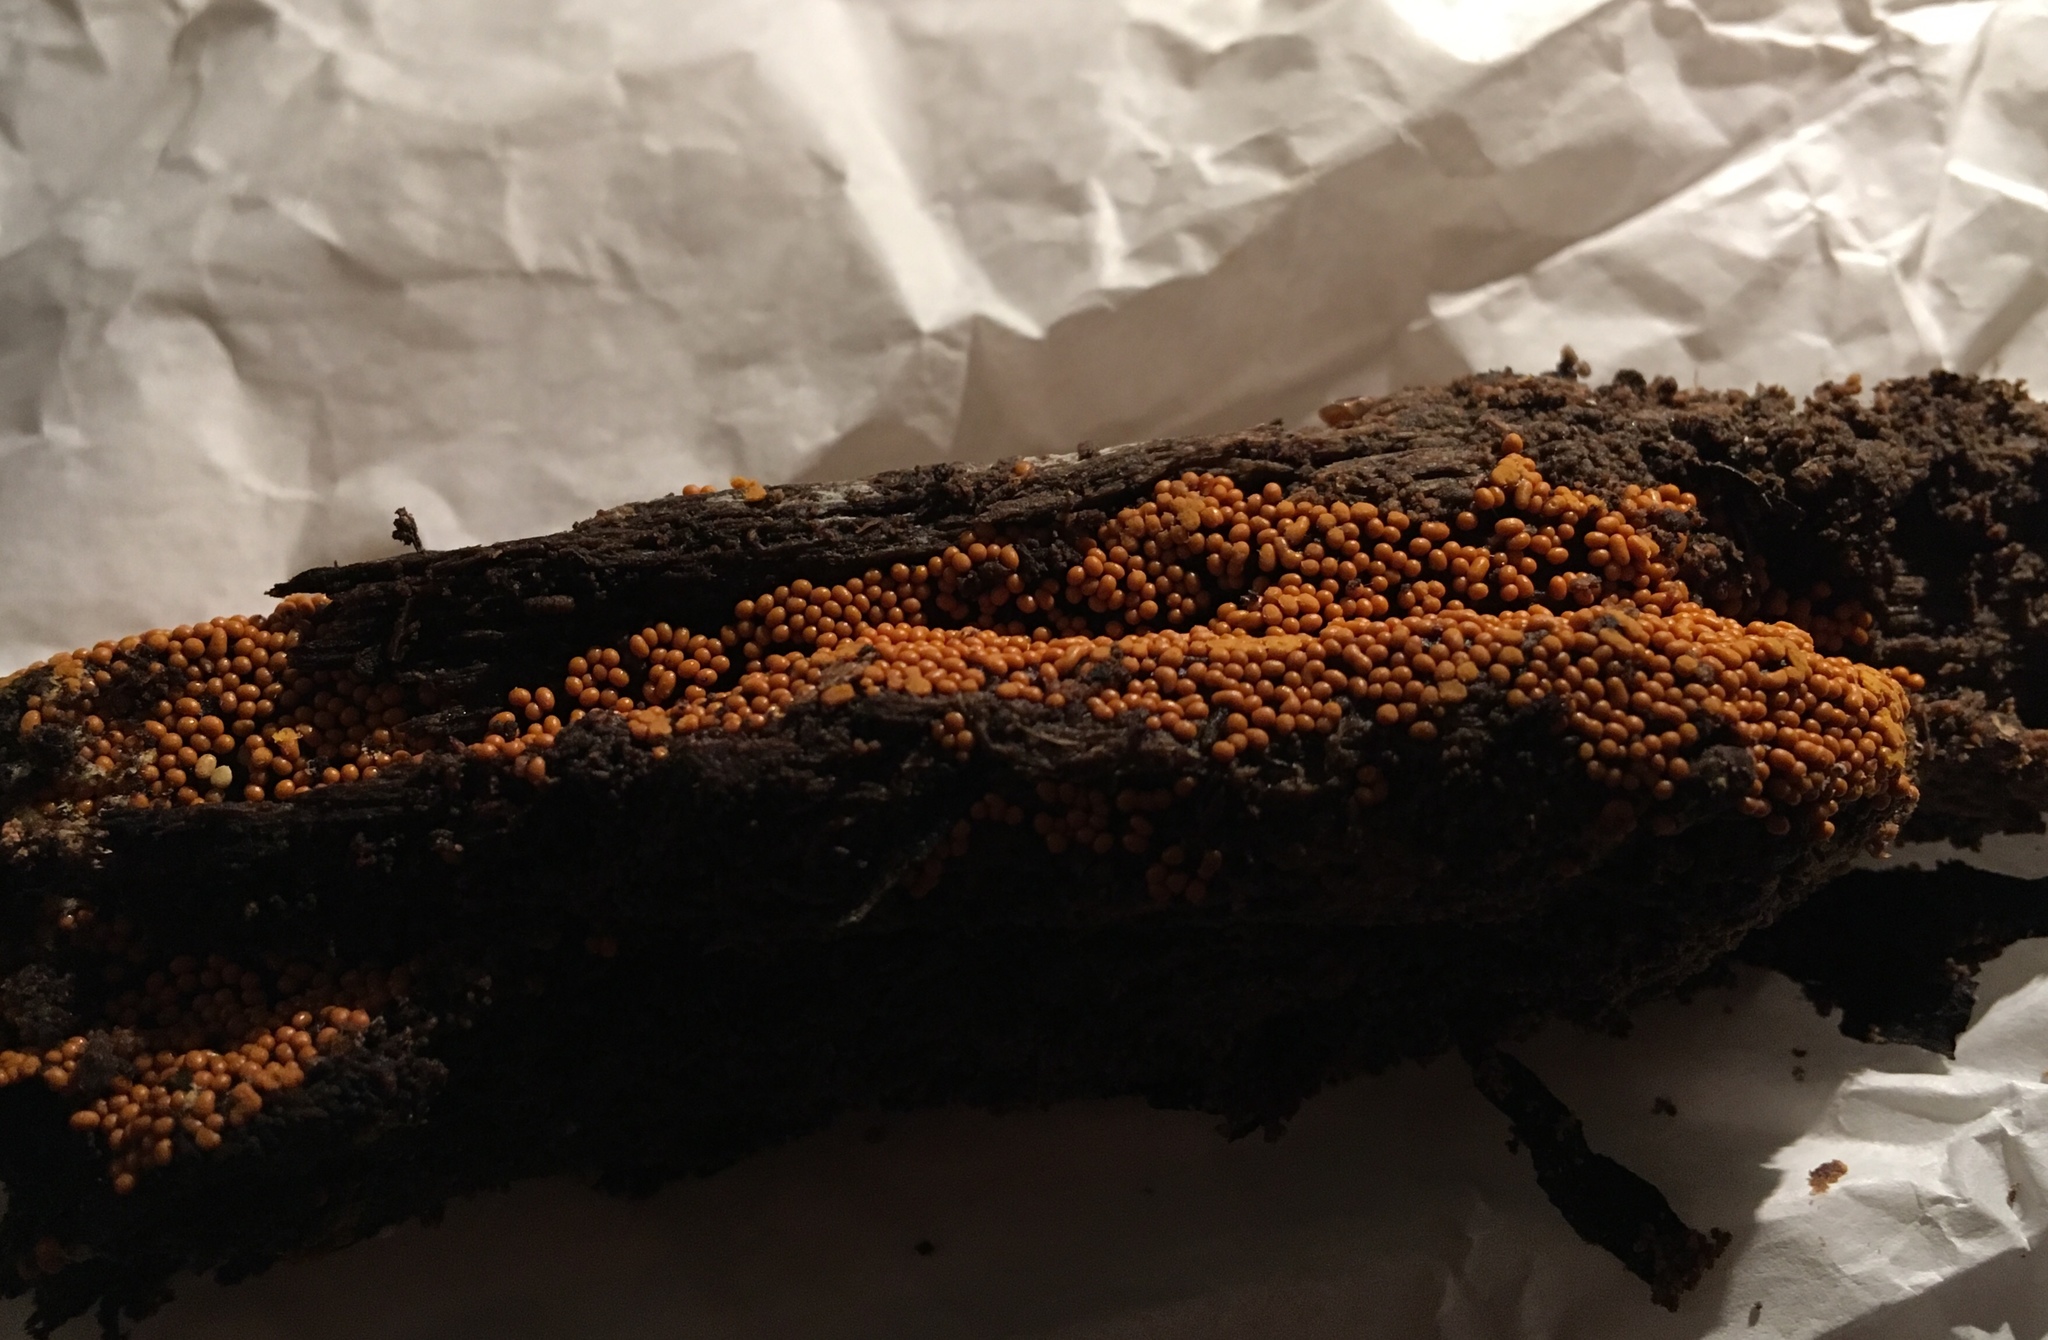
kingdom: Protozoa
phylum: Mycetozoa
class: Myxomycetes
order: Trichiales
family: Trichiaceae
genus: Trichia
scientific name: Trichia varia
